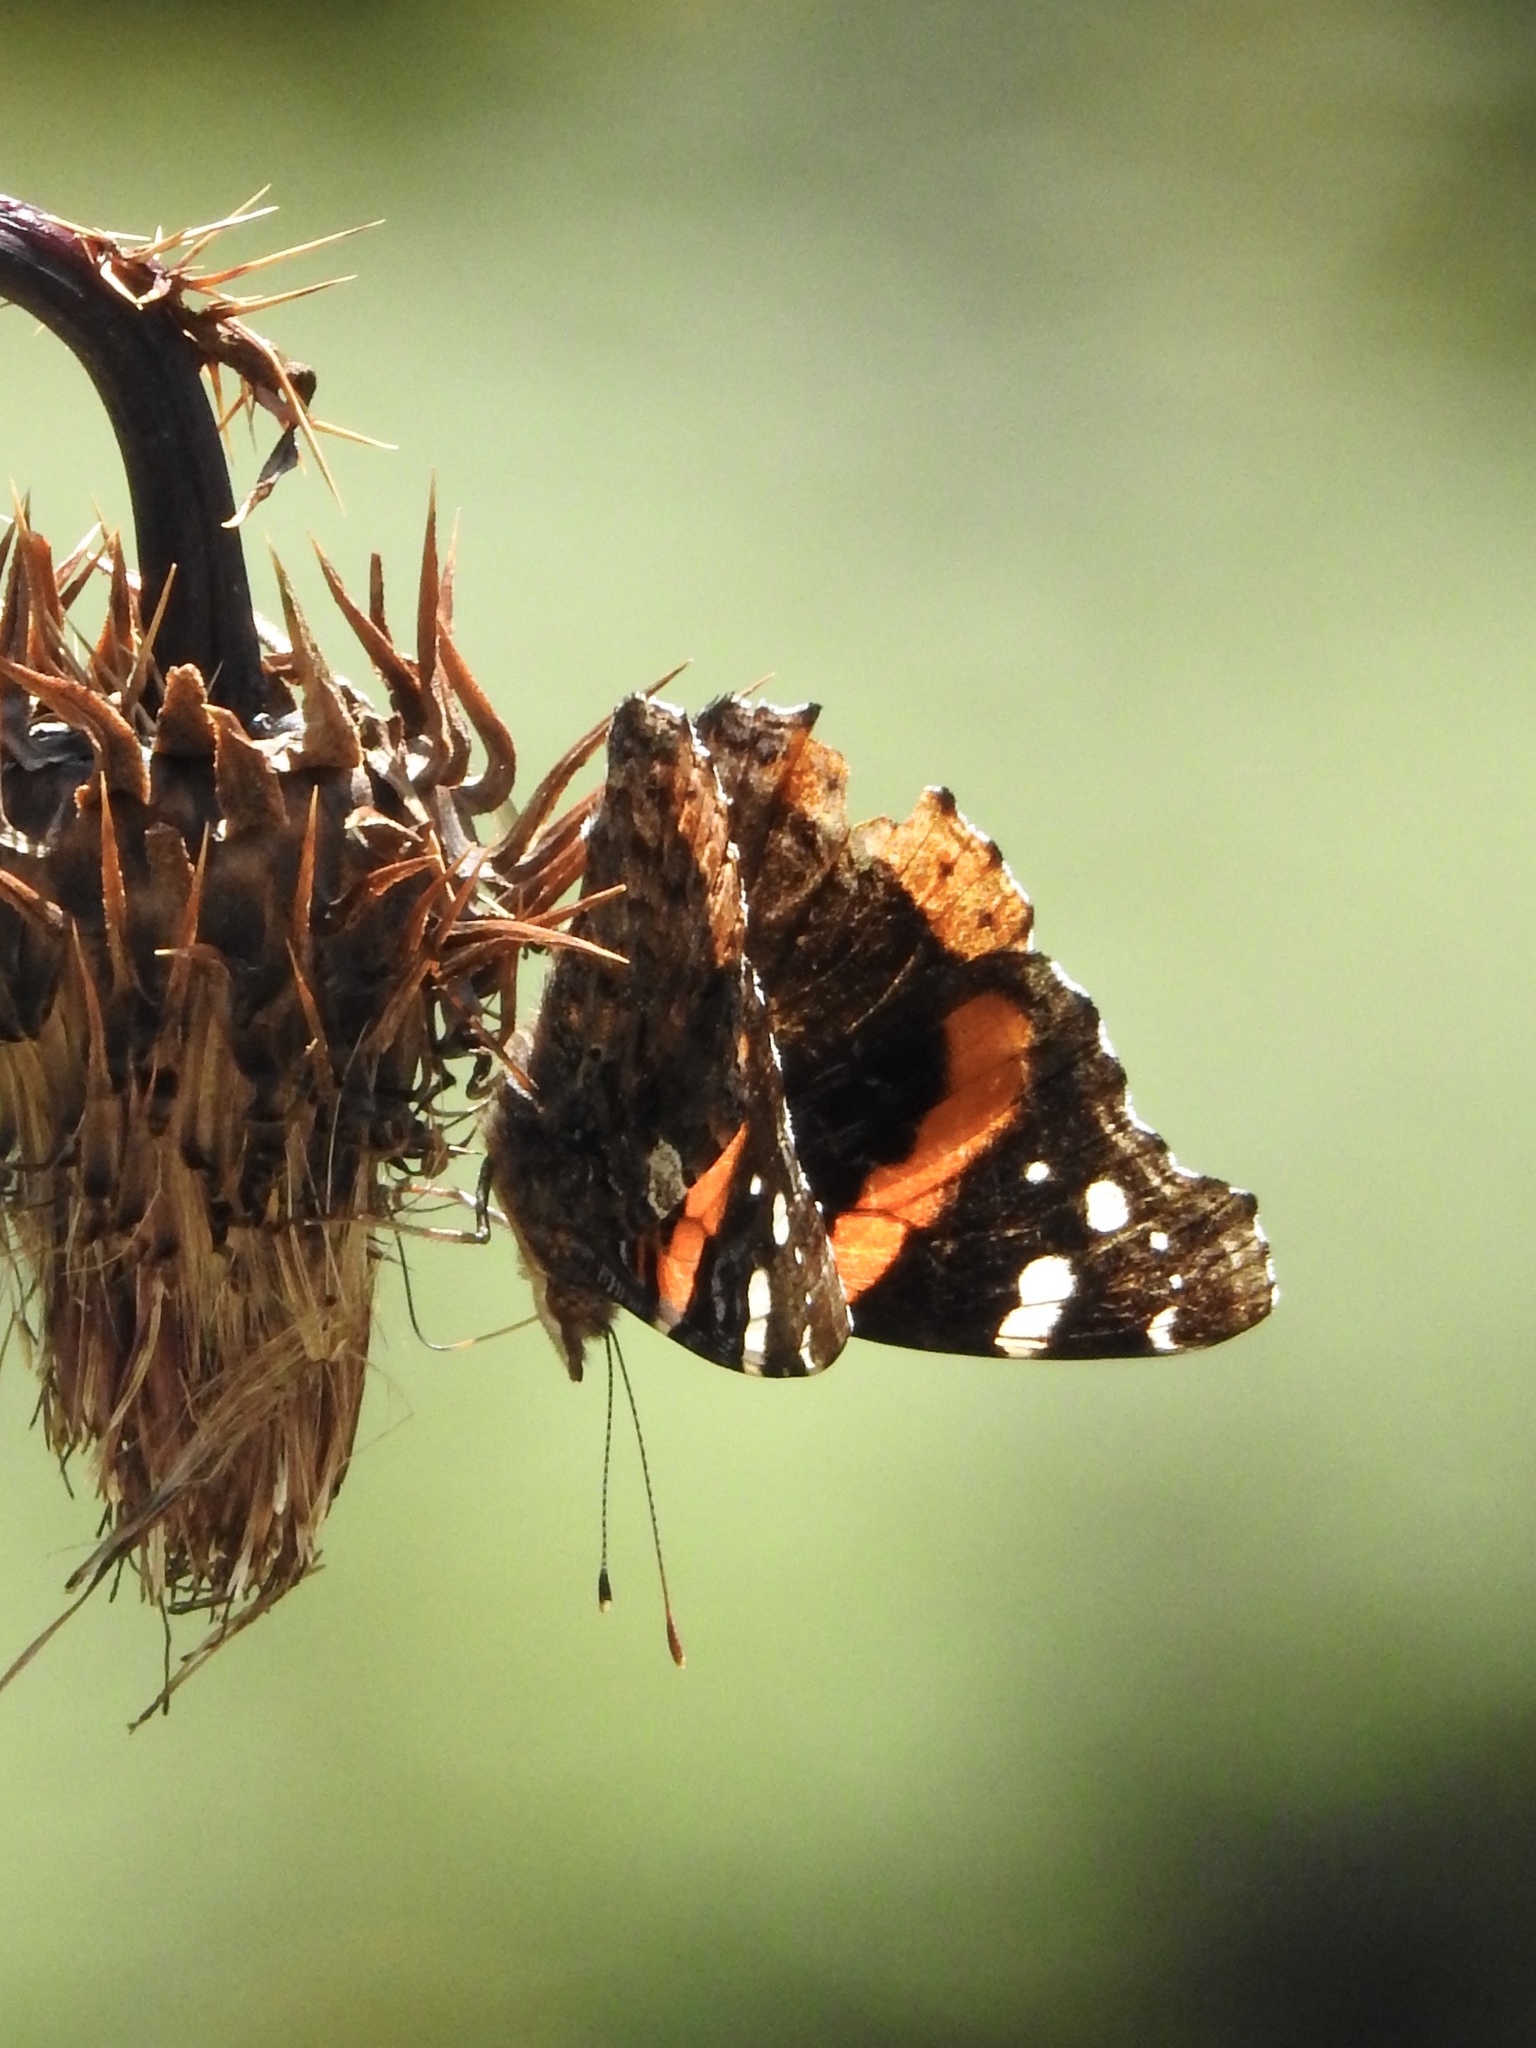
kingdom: Animalia
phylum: Arthropoda
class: Insecta
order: Lepidoptera
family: Nymphalidae
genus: Vanessa
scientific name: Vanessa atalanta
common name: Red admiral
